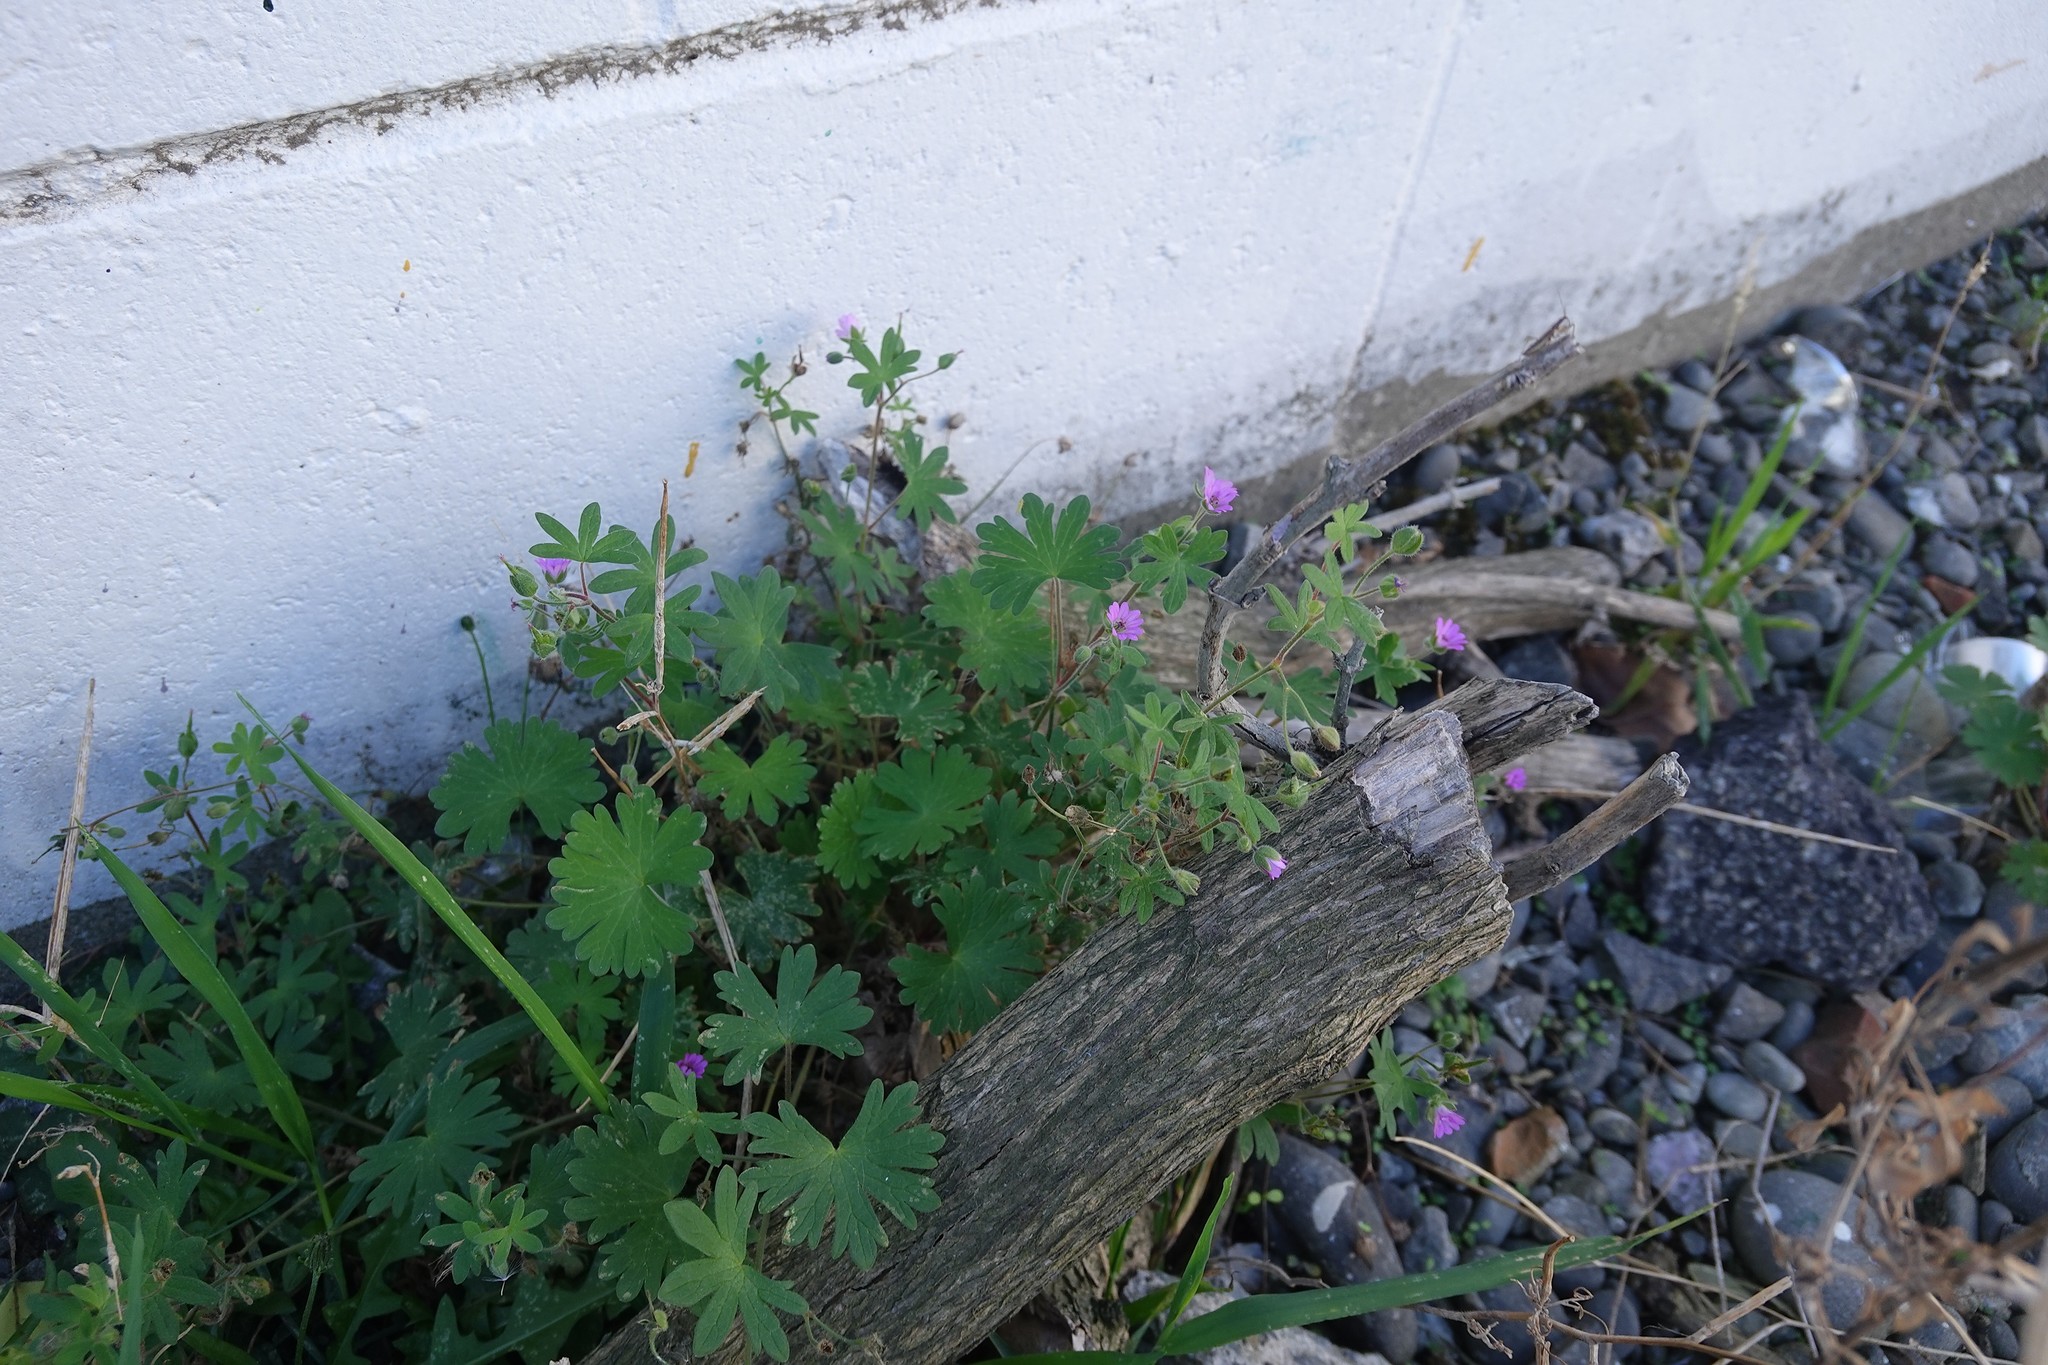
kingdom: Plantae
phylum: Tracheophyta
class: Magnoliopsida
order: Geraniales
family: Geraniaceae
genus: Geranium
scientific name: Geranium molle
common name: Dove's-foot crane's-bill
